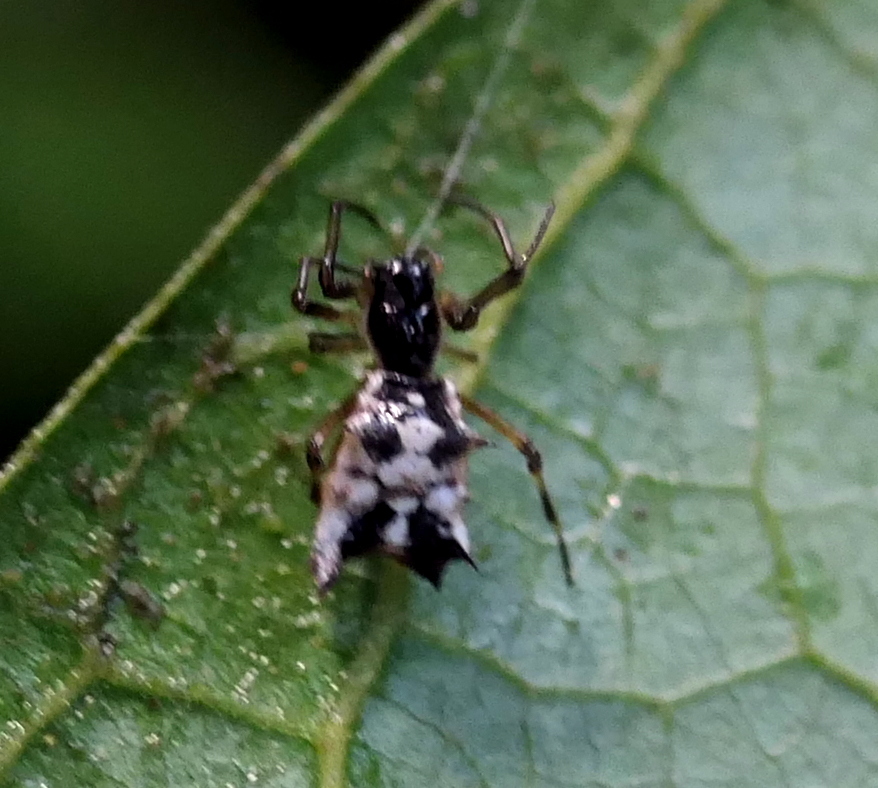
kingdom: Animalia
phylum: Arthropoda
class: Arachnida
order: Araneae
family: Araneidae
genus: Micrathena
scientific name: Micrathena picta
